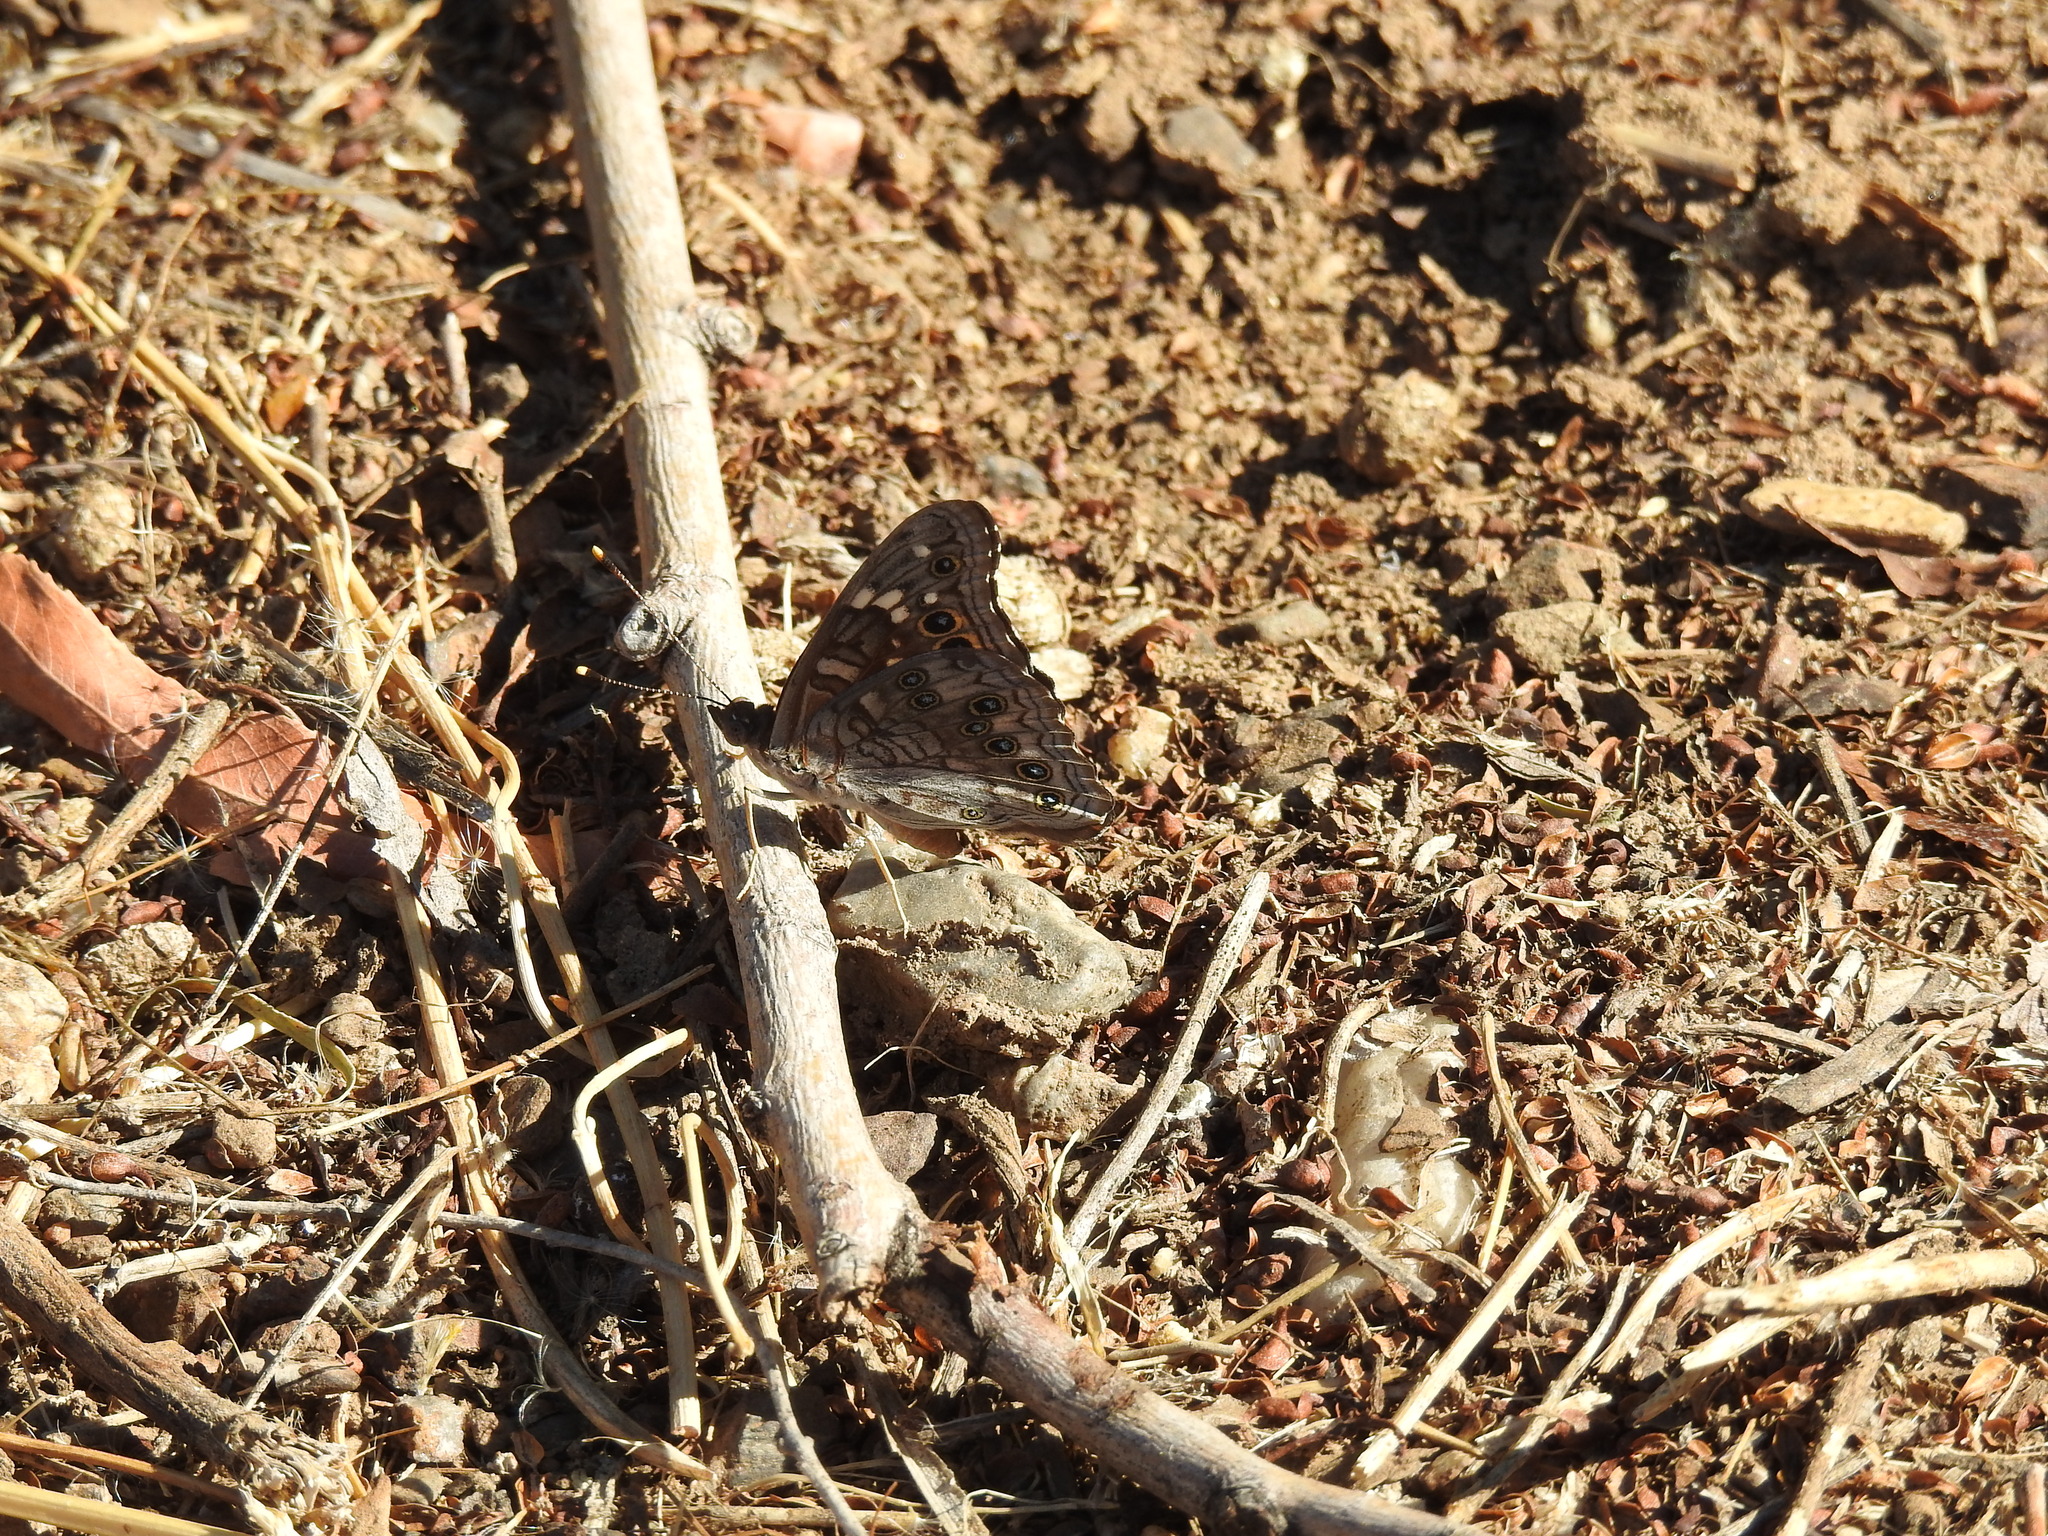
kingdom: Animalia
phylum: Arthropoda
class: Insecta
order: Lepidoptera
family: Nymphalidae
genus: Asterocampa
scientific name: Asterocampa leilia
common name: Empress leilia
